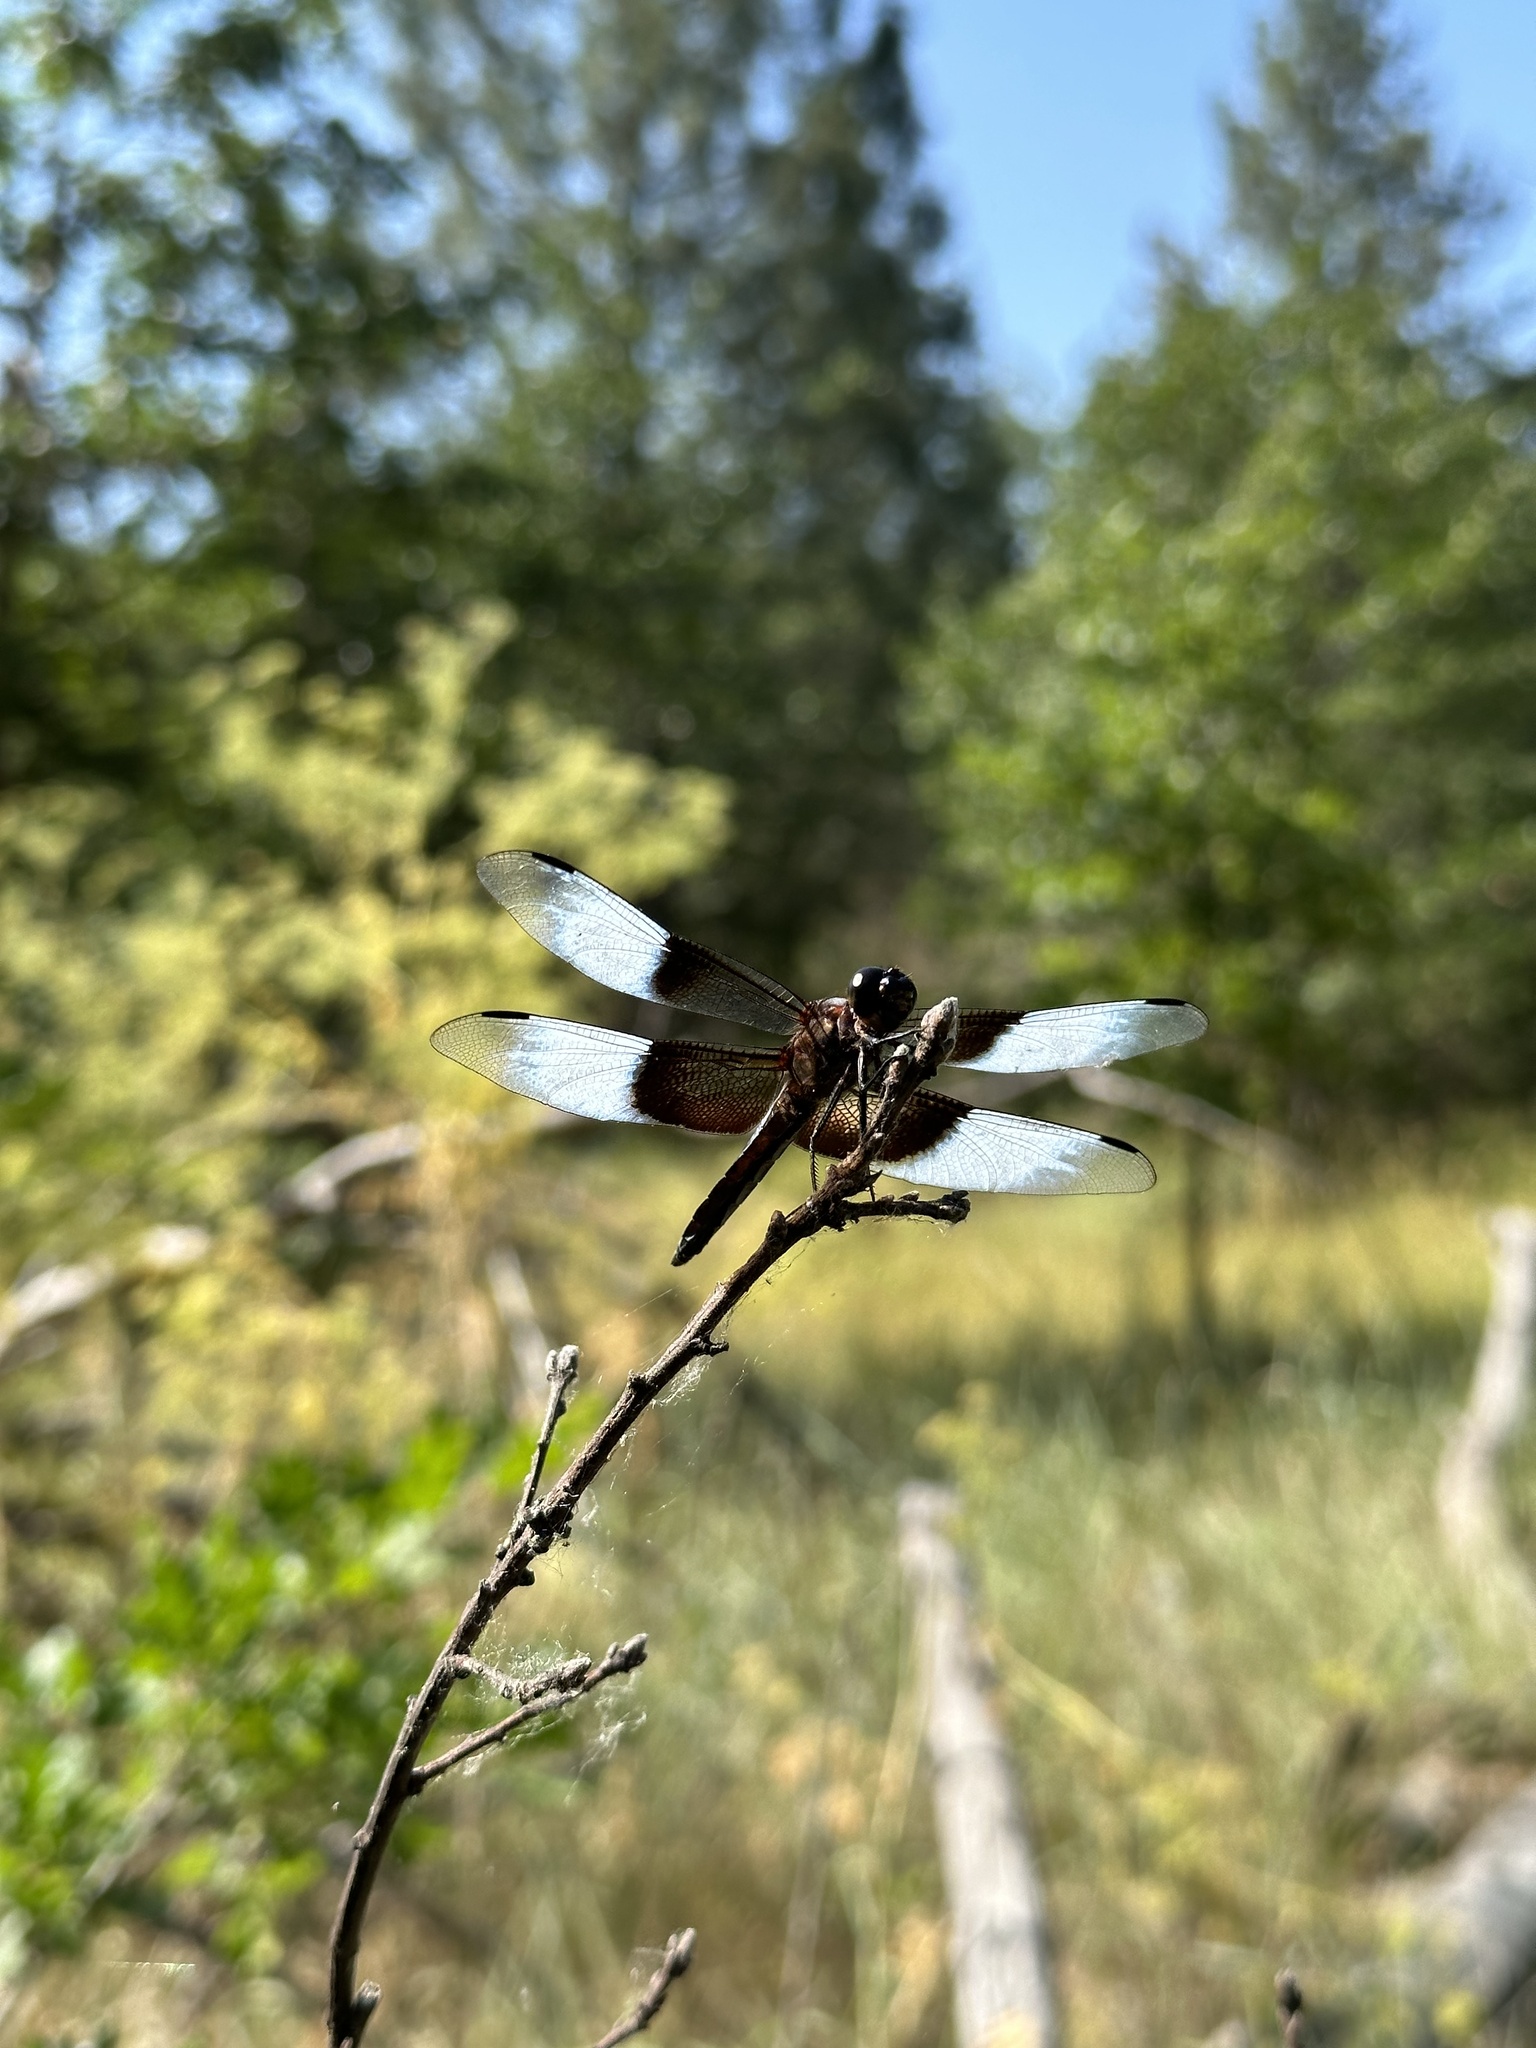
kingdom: Animalia
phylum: Arthropoda
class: Insecta
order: Odonata
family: Libellulidae
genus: Libellula
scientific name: Libellula luctuosa
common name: Widow skimmer
